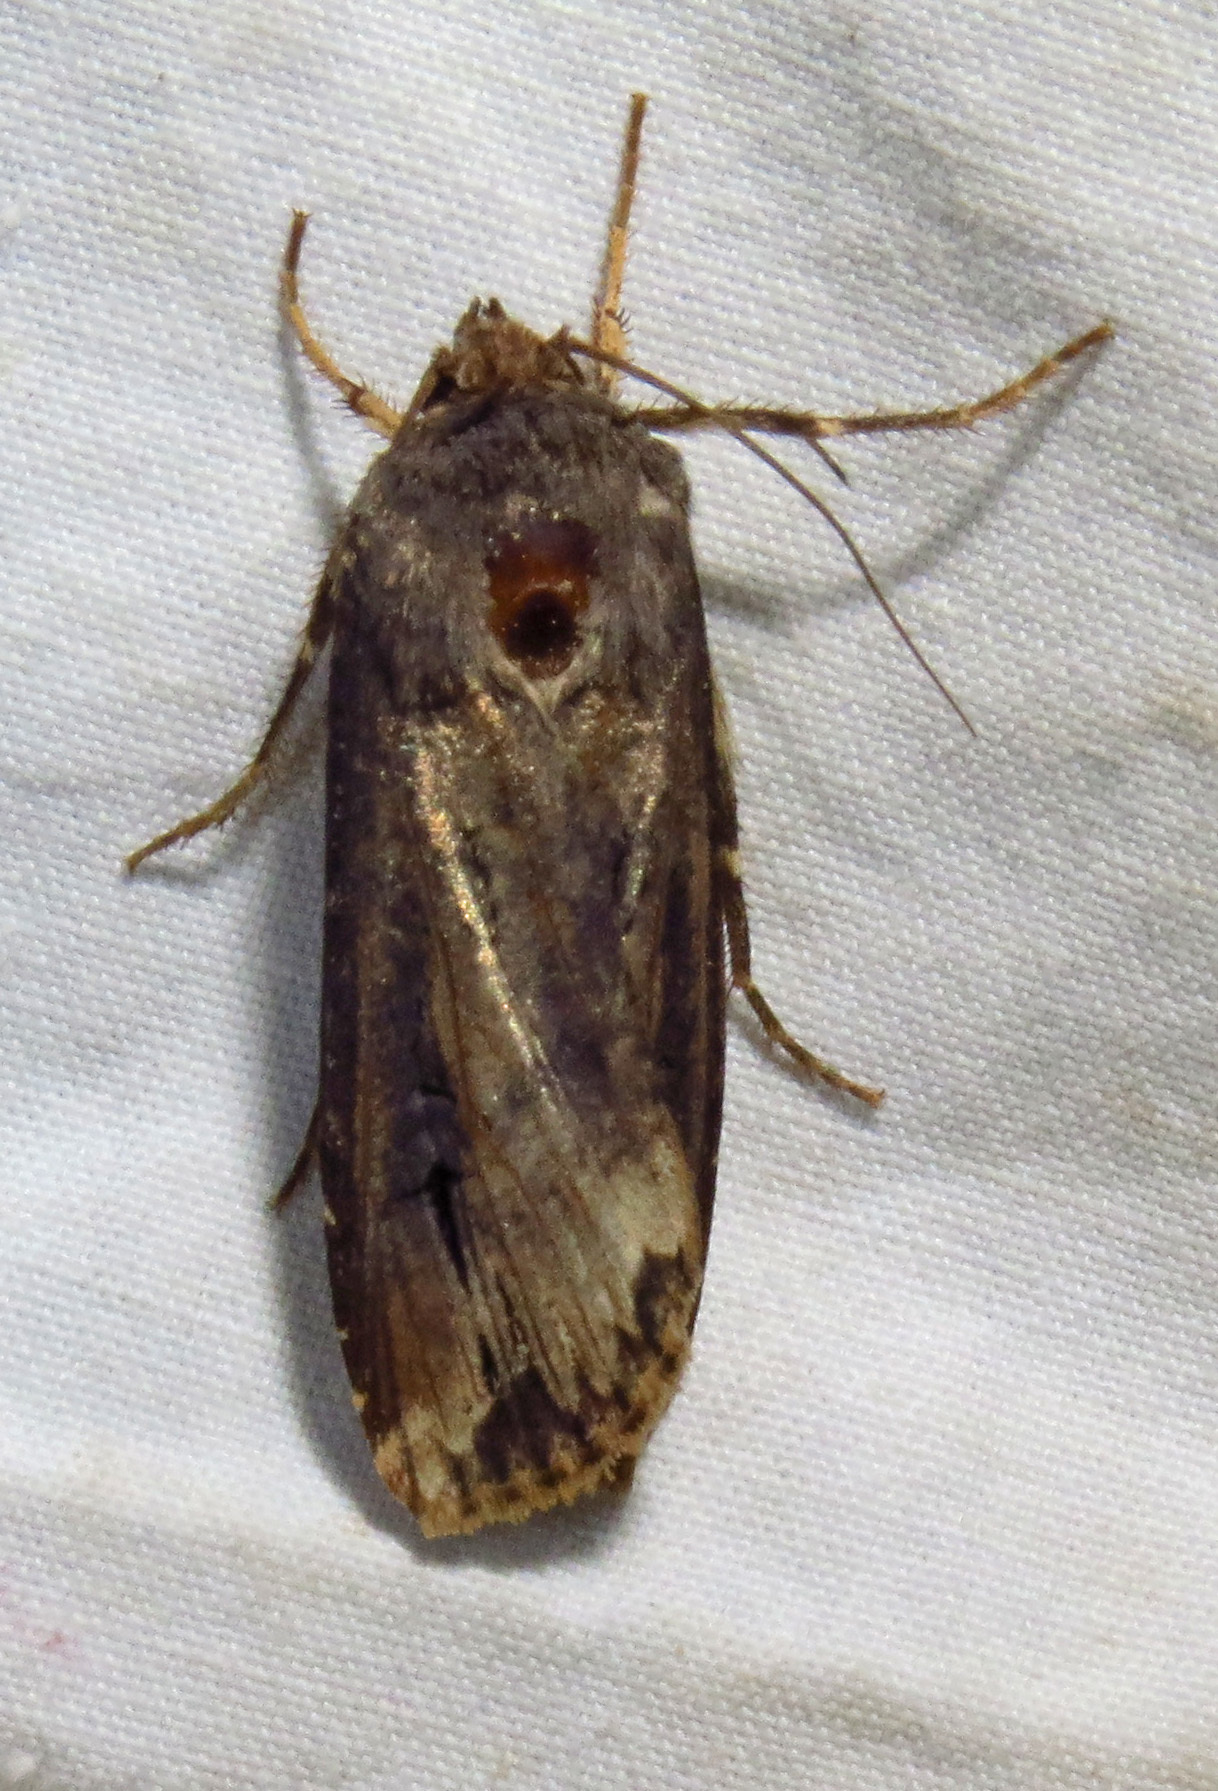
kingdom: Animalia
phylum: Arthropoda
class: Insecta
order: Lepidoptera
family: Noctuidae
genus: Agrotis
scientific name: Agrotis ipsilon
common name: Dark sword-grass
